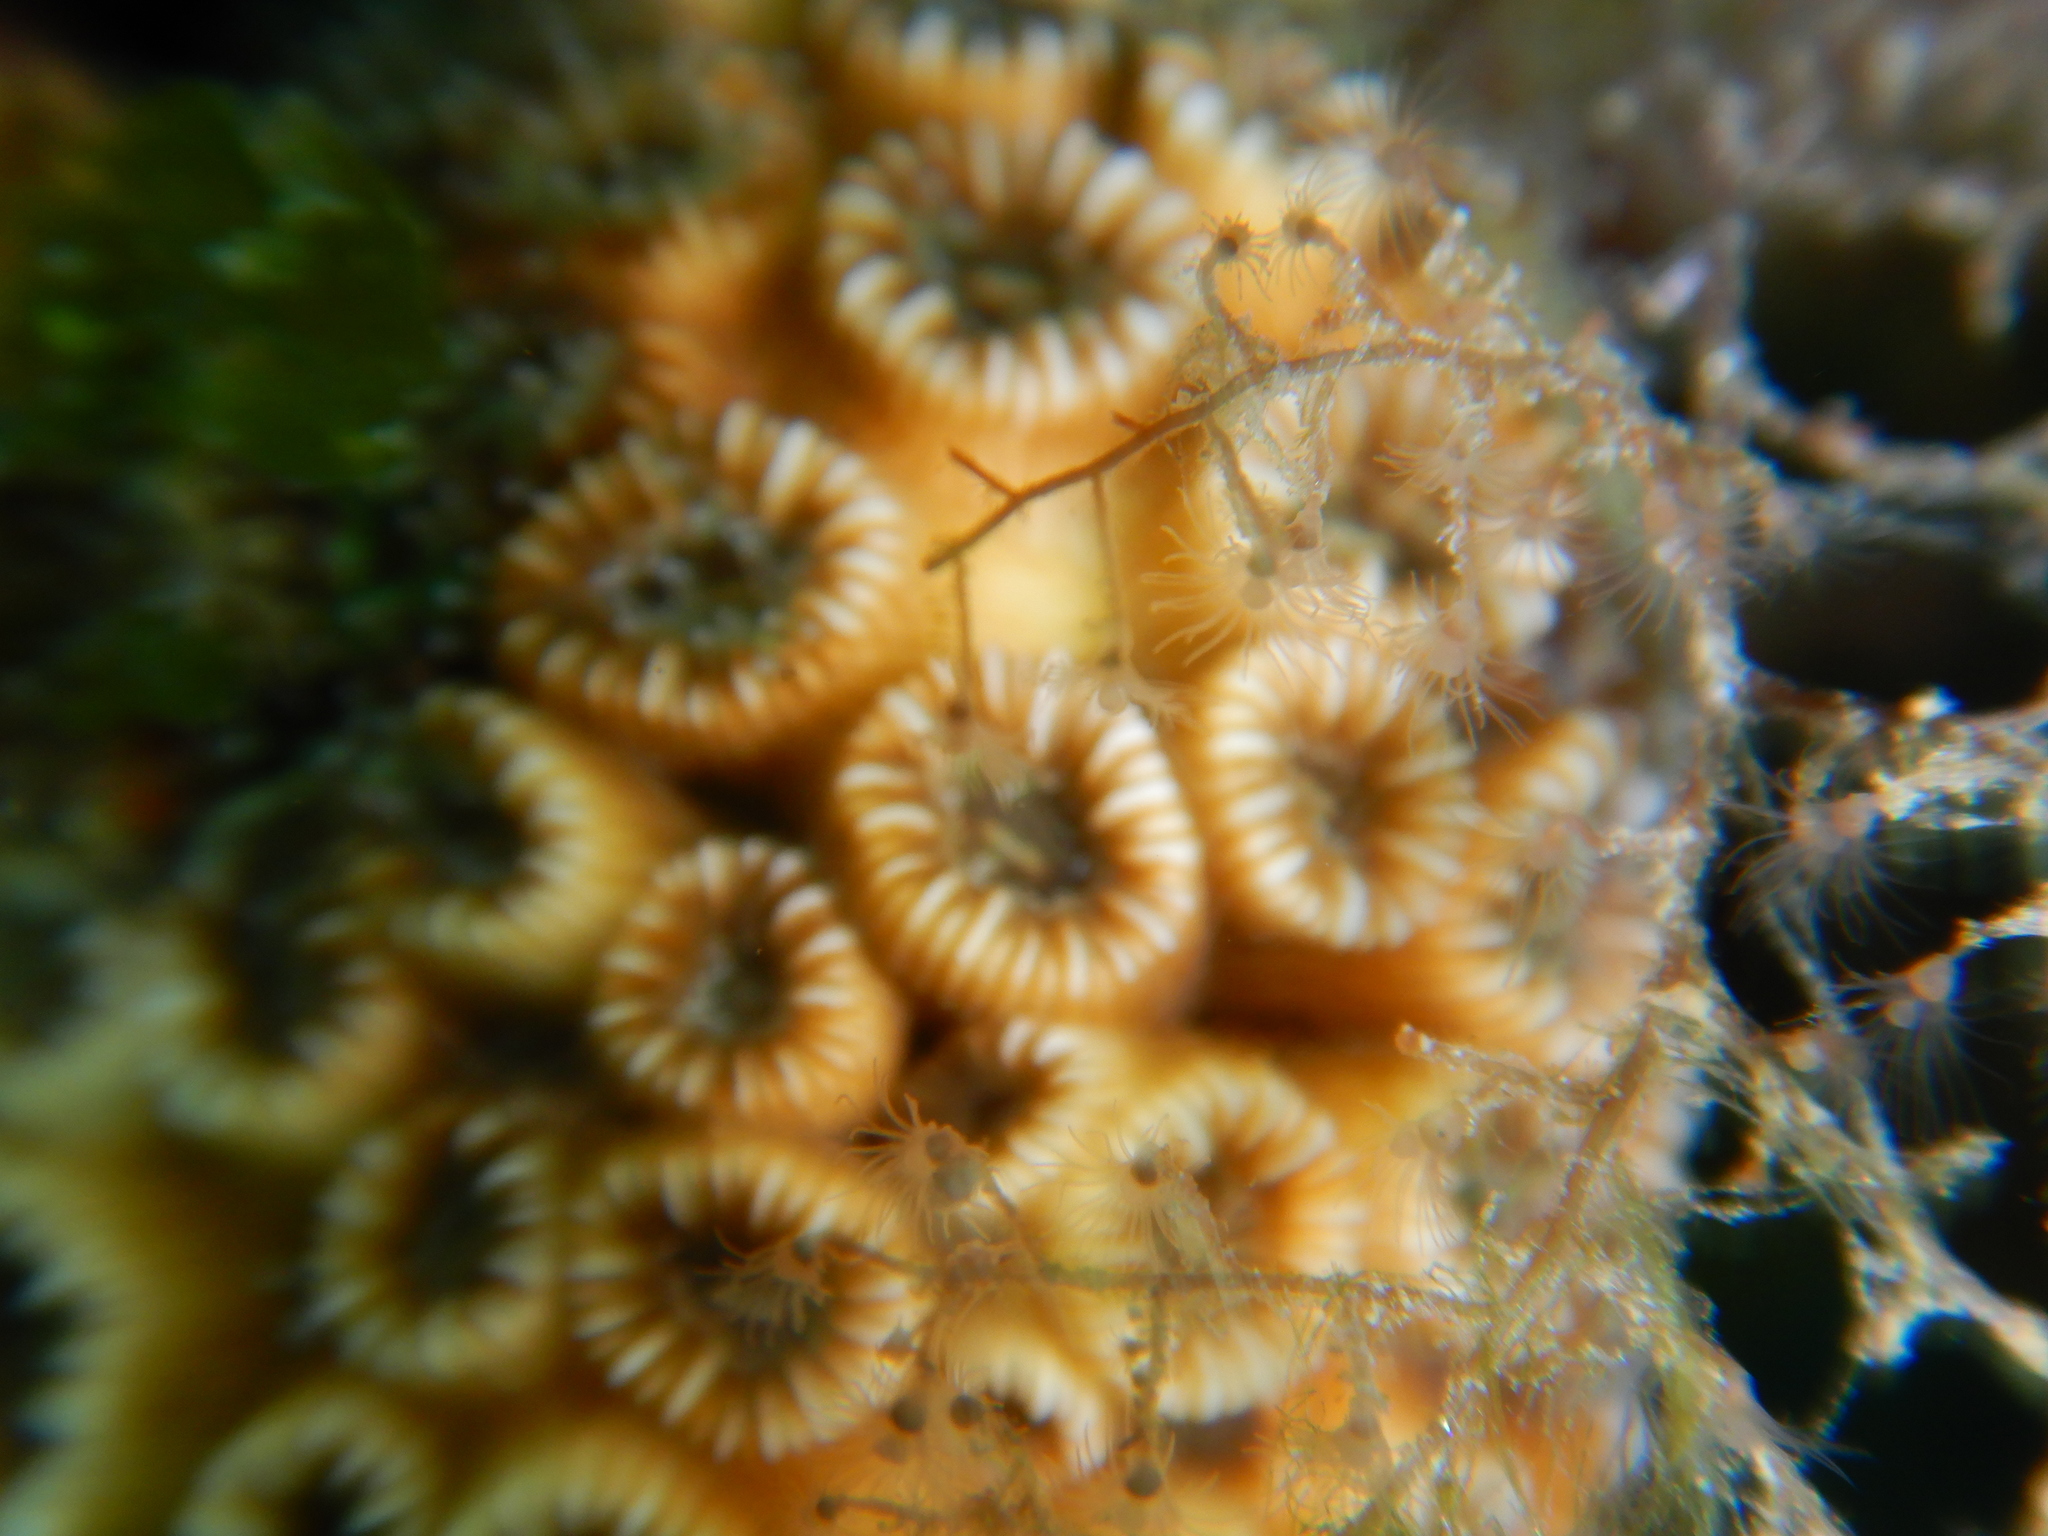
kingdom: Animalia
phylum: Cnidaria
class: Anthozoa
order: Scleractinia
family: Cladocoridae
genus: Cladocora
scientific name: Cladocora caespitosa
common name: Cladocora
